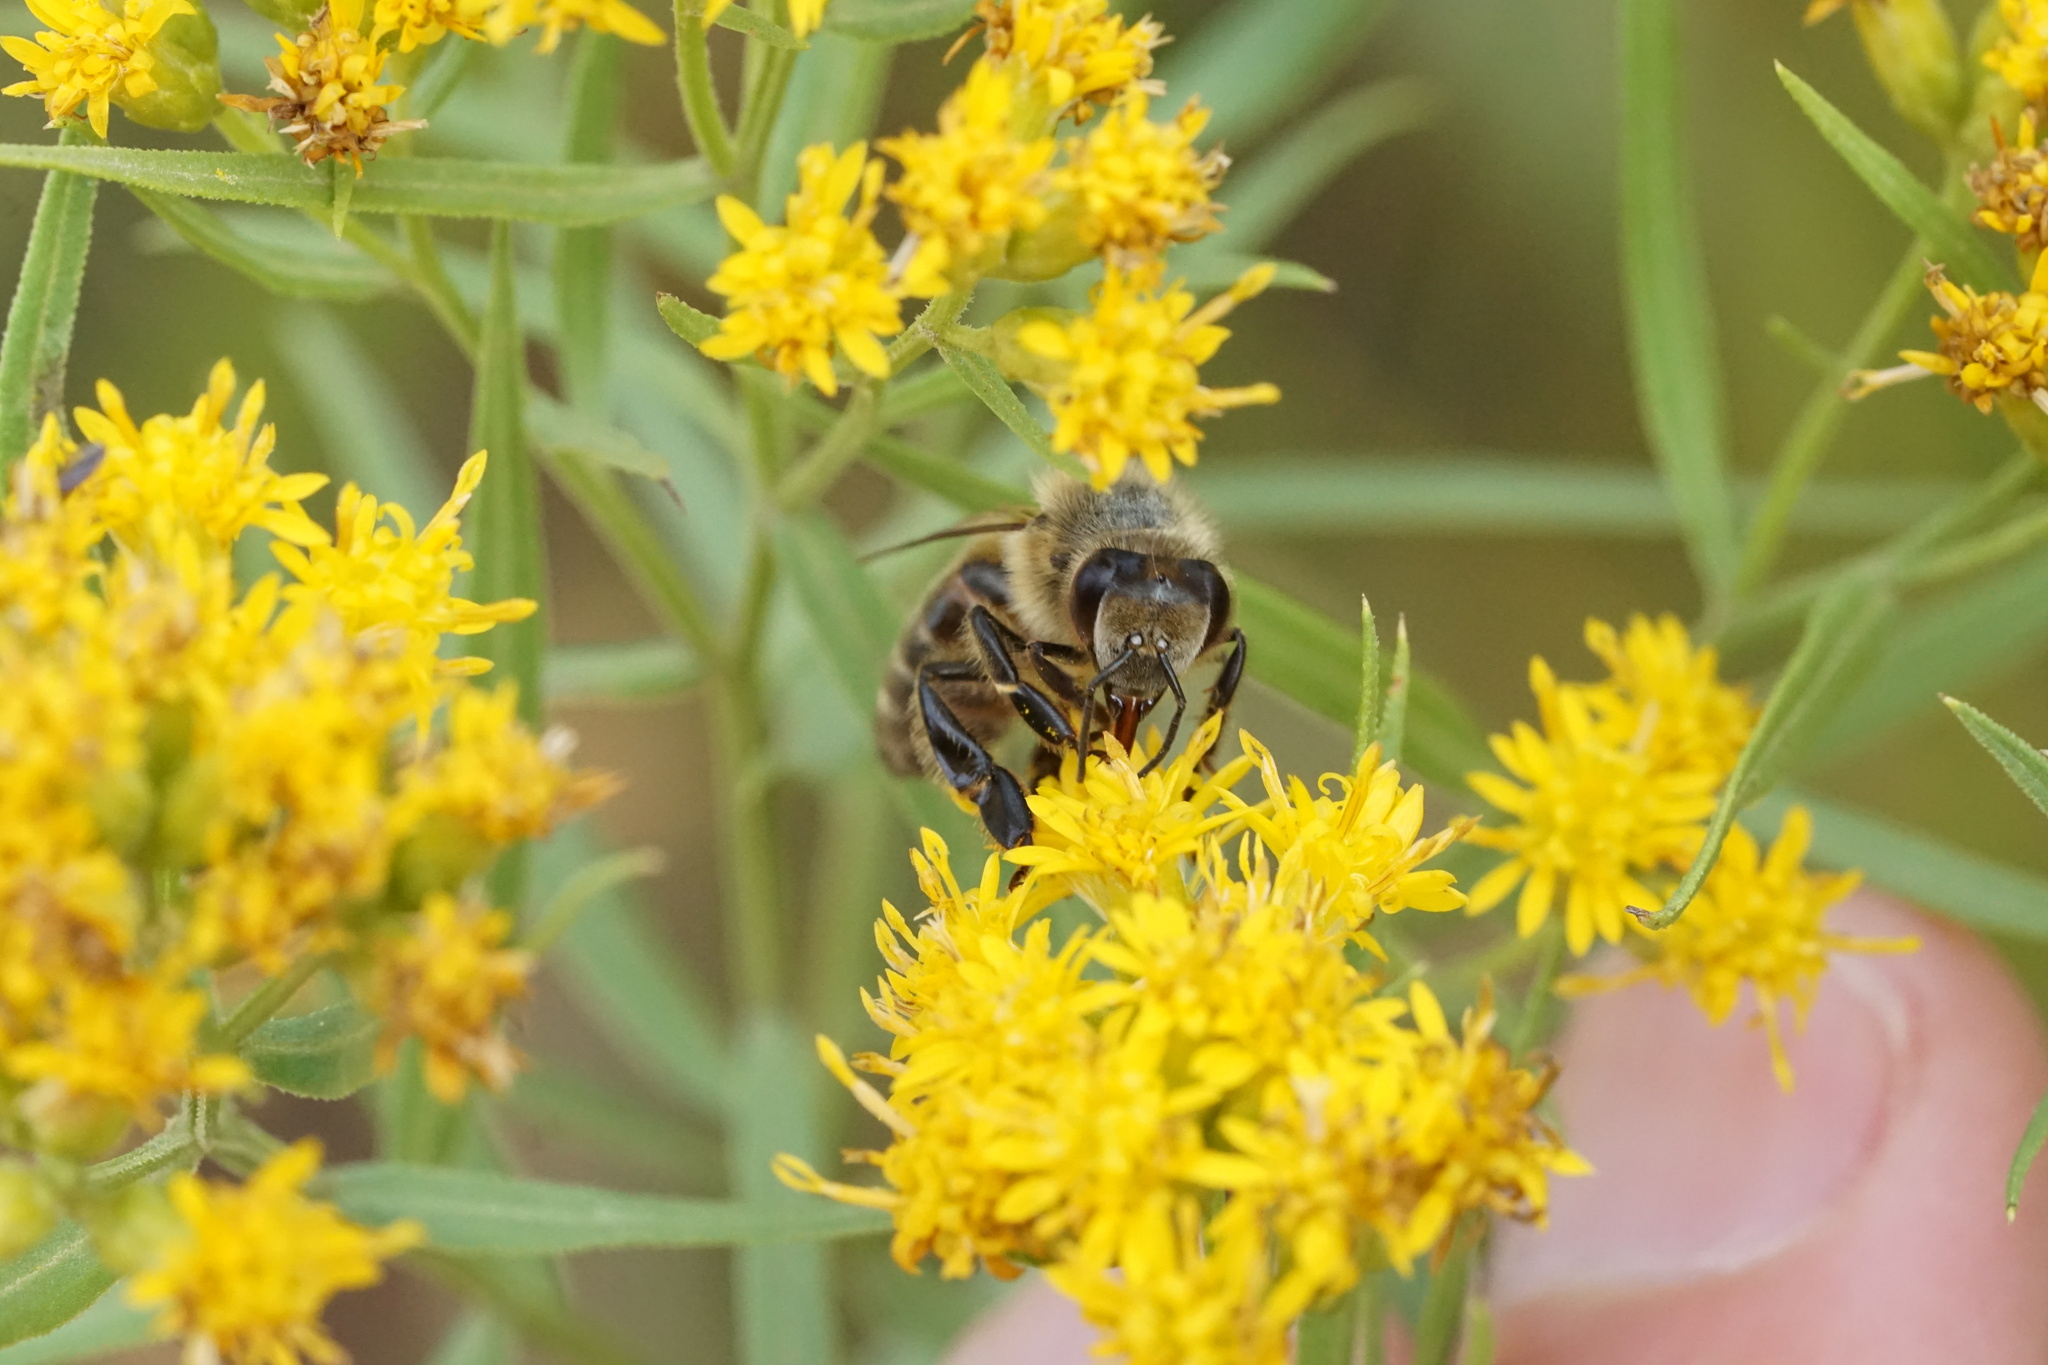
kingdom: Animalia
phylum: Arthropoda
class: Insecta
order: Hymenoptera
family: Apidae
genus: Apis
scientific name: Apis mellifera
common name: Honey bee
